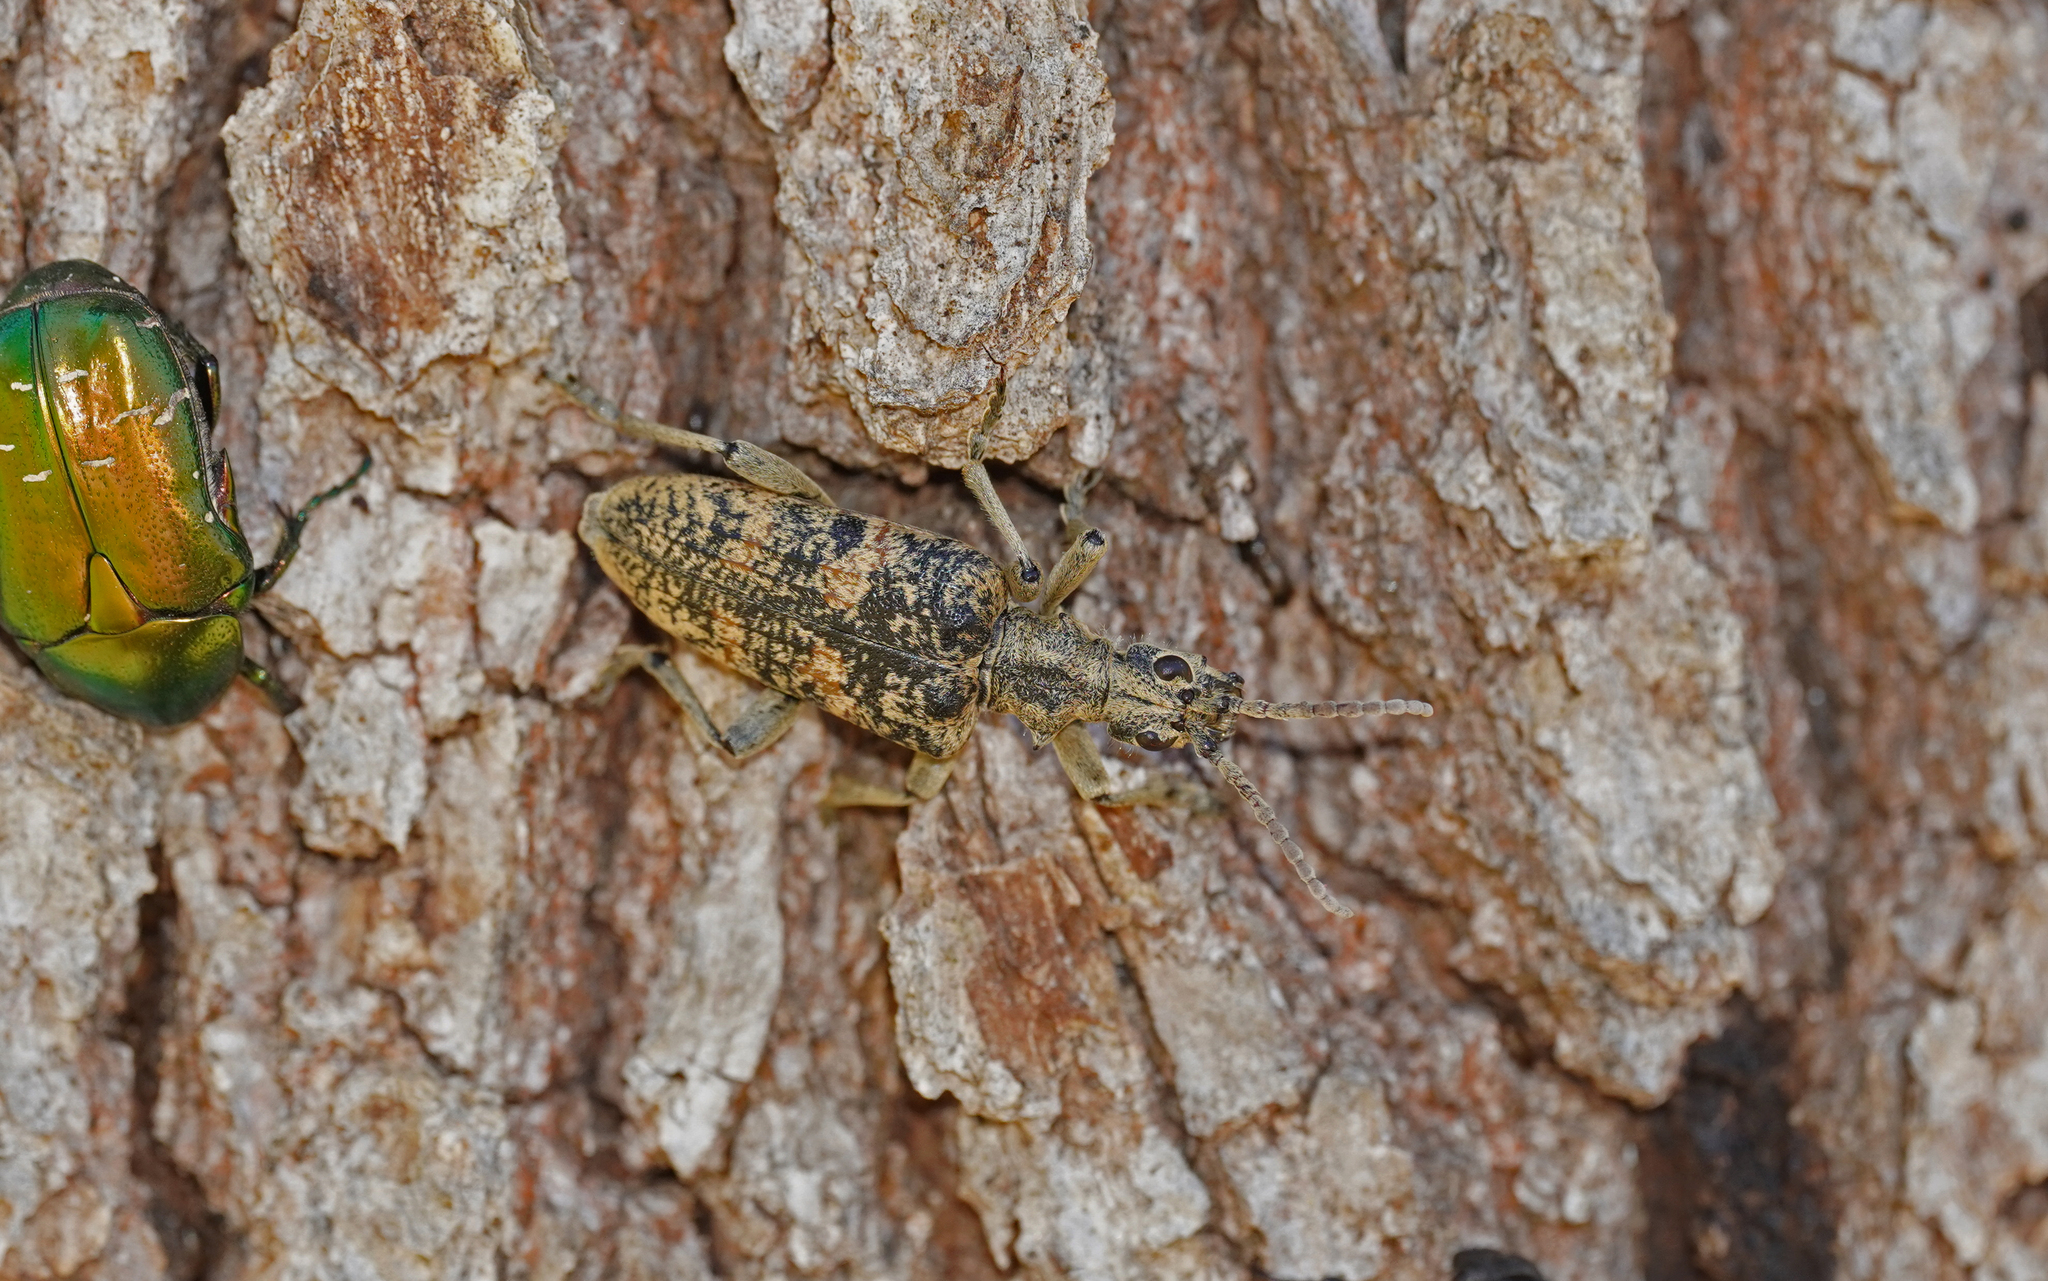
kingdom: Animalia
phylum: Arthropoda
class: Insecta
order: Coleoptera
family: Cerambycidae
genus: Rhagium
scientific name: Rhagium sycophanta
